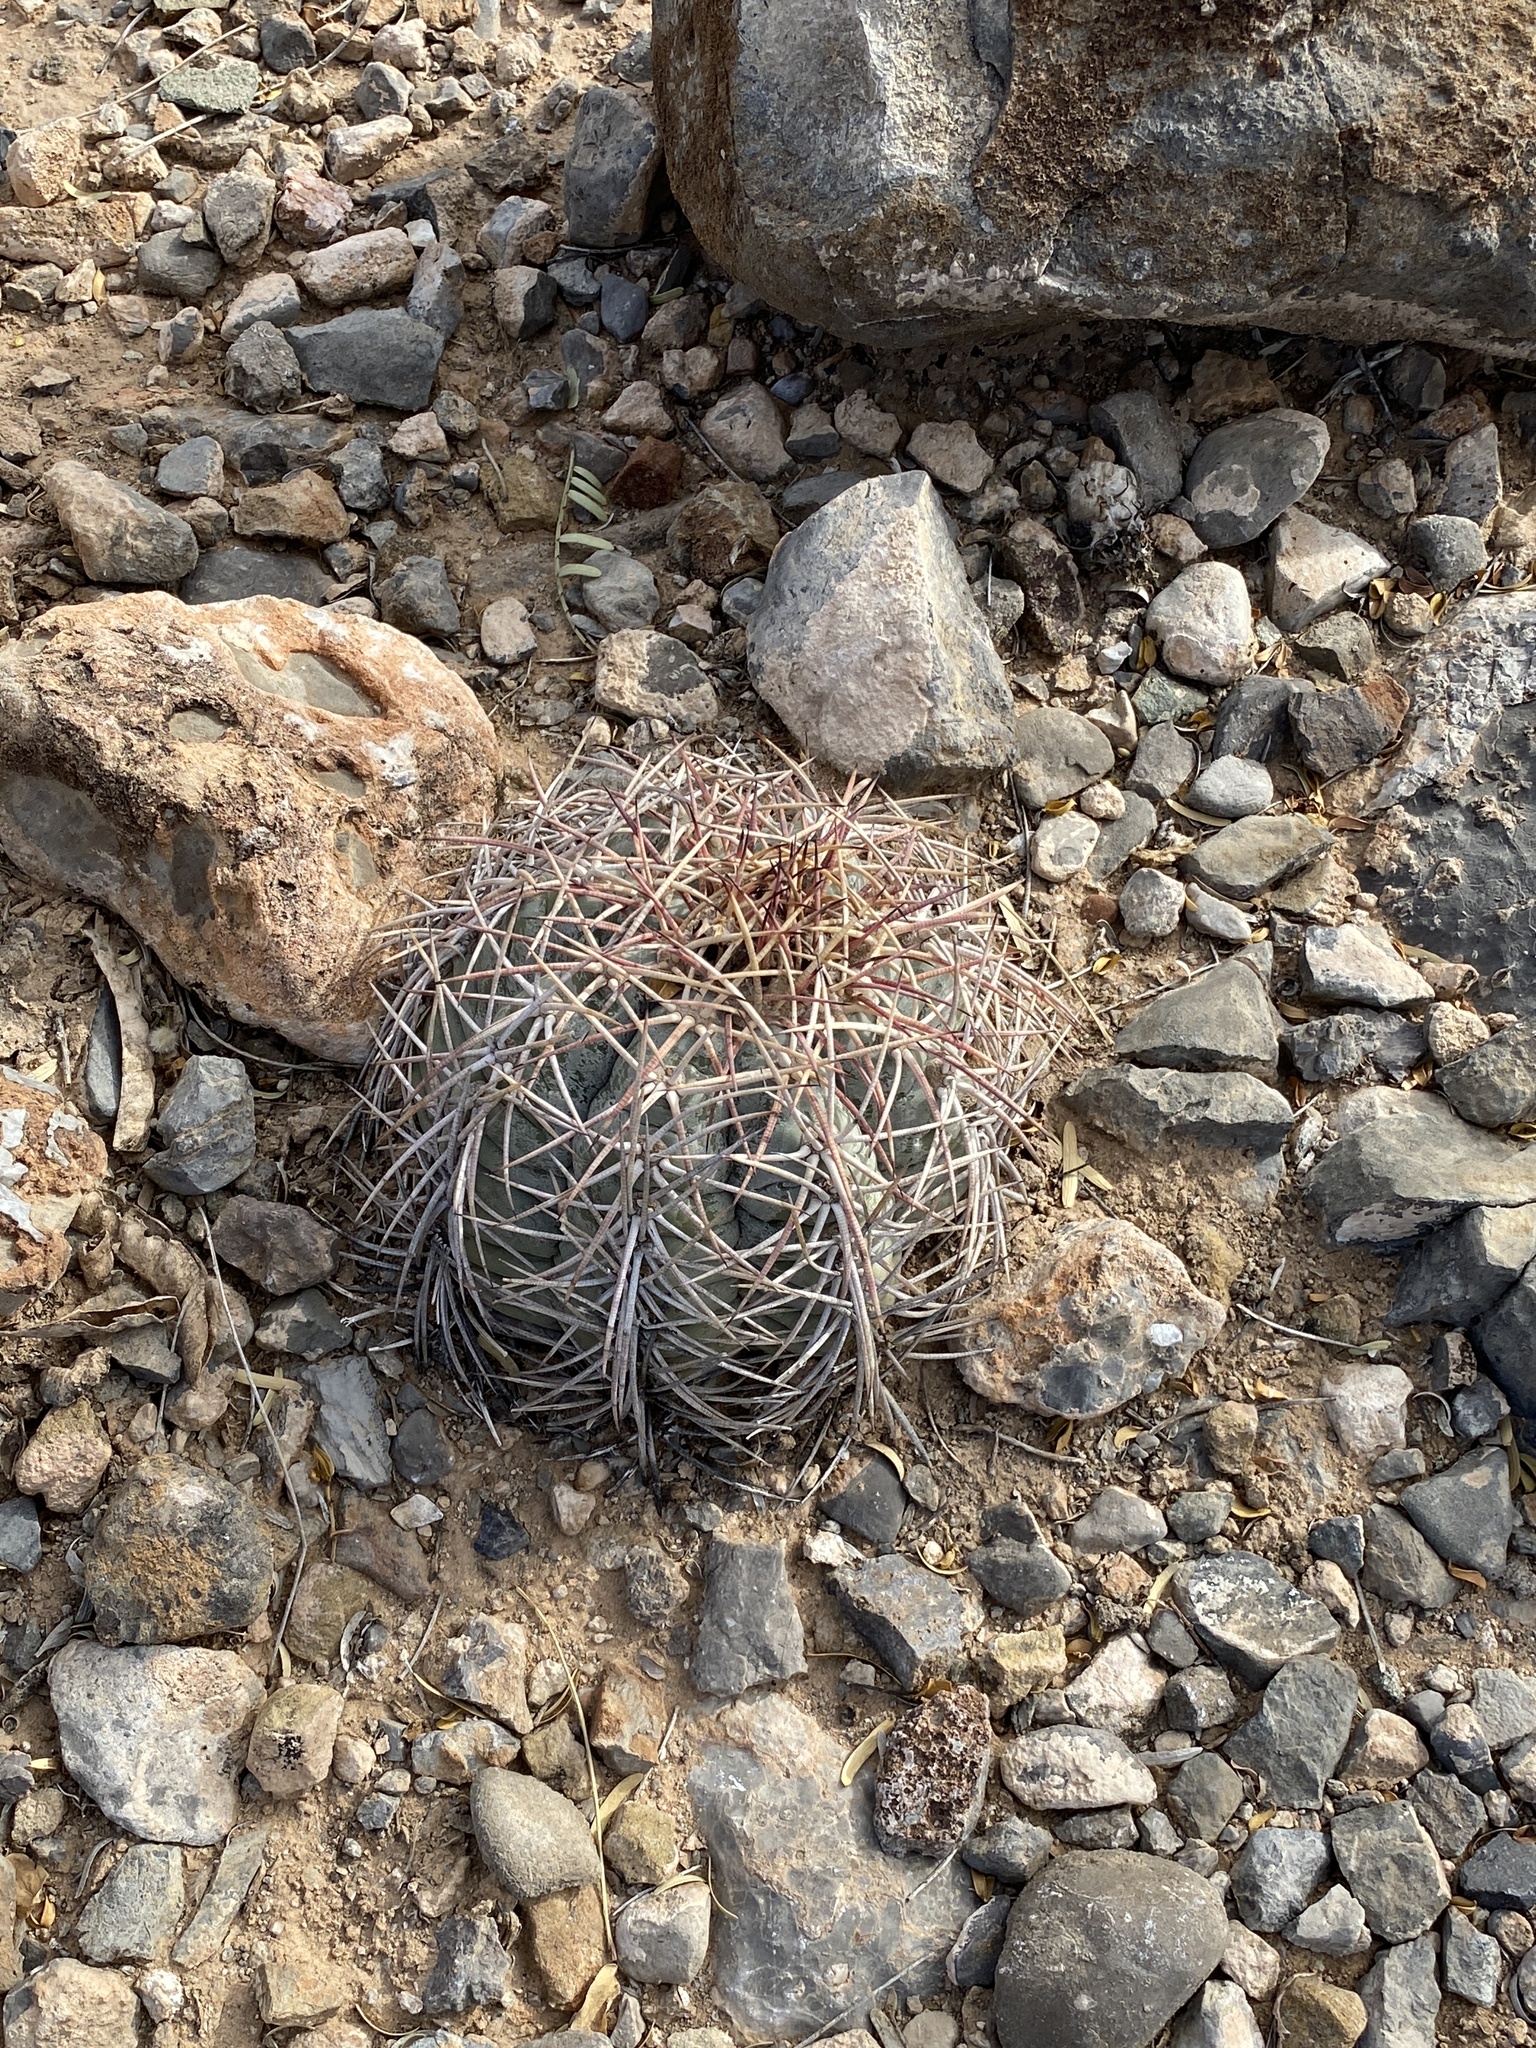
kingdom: Plantae
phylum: Tracheophyta
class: Magnoliopsida
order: Caryophyllales
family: Cactaceae
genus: Echinocactus
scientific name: Echinocactus horizonthalonius
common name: Devilshead
